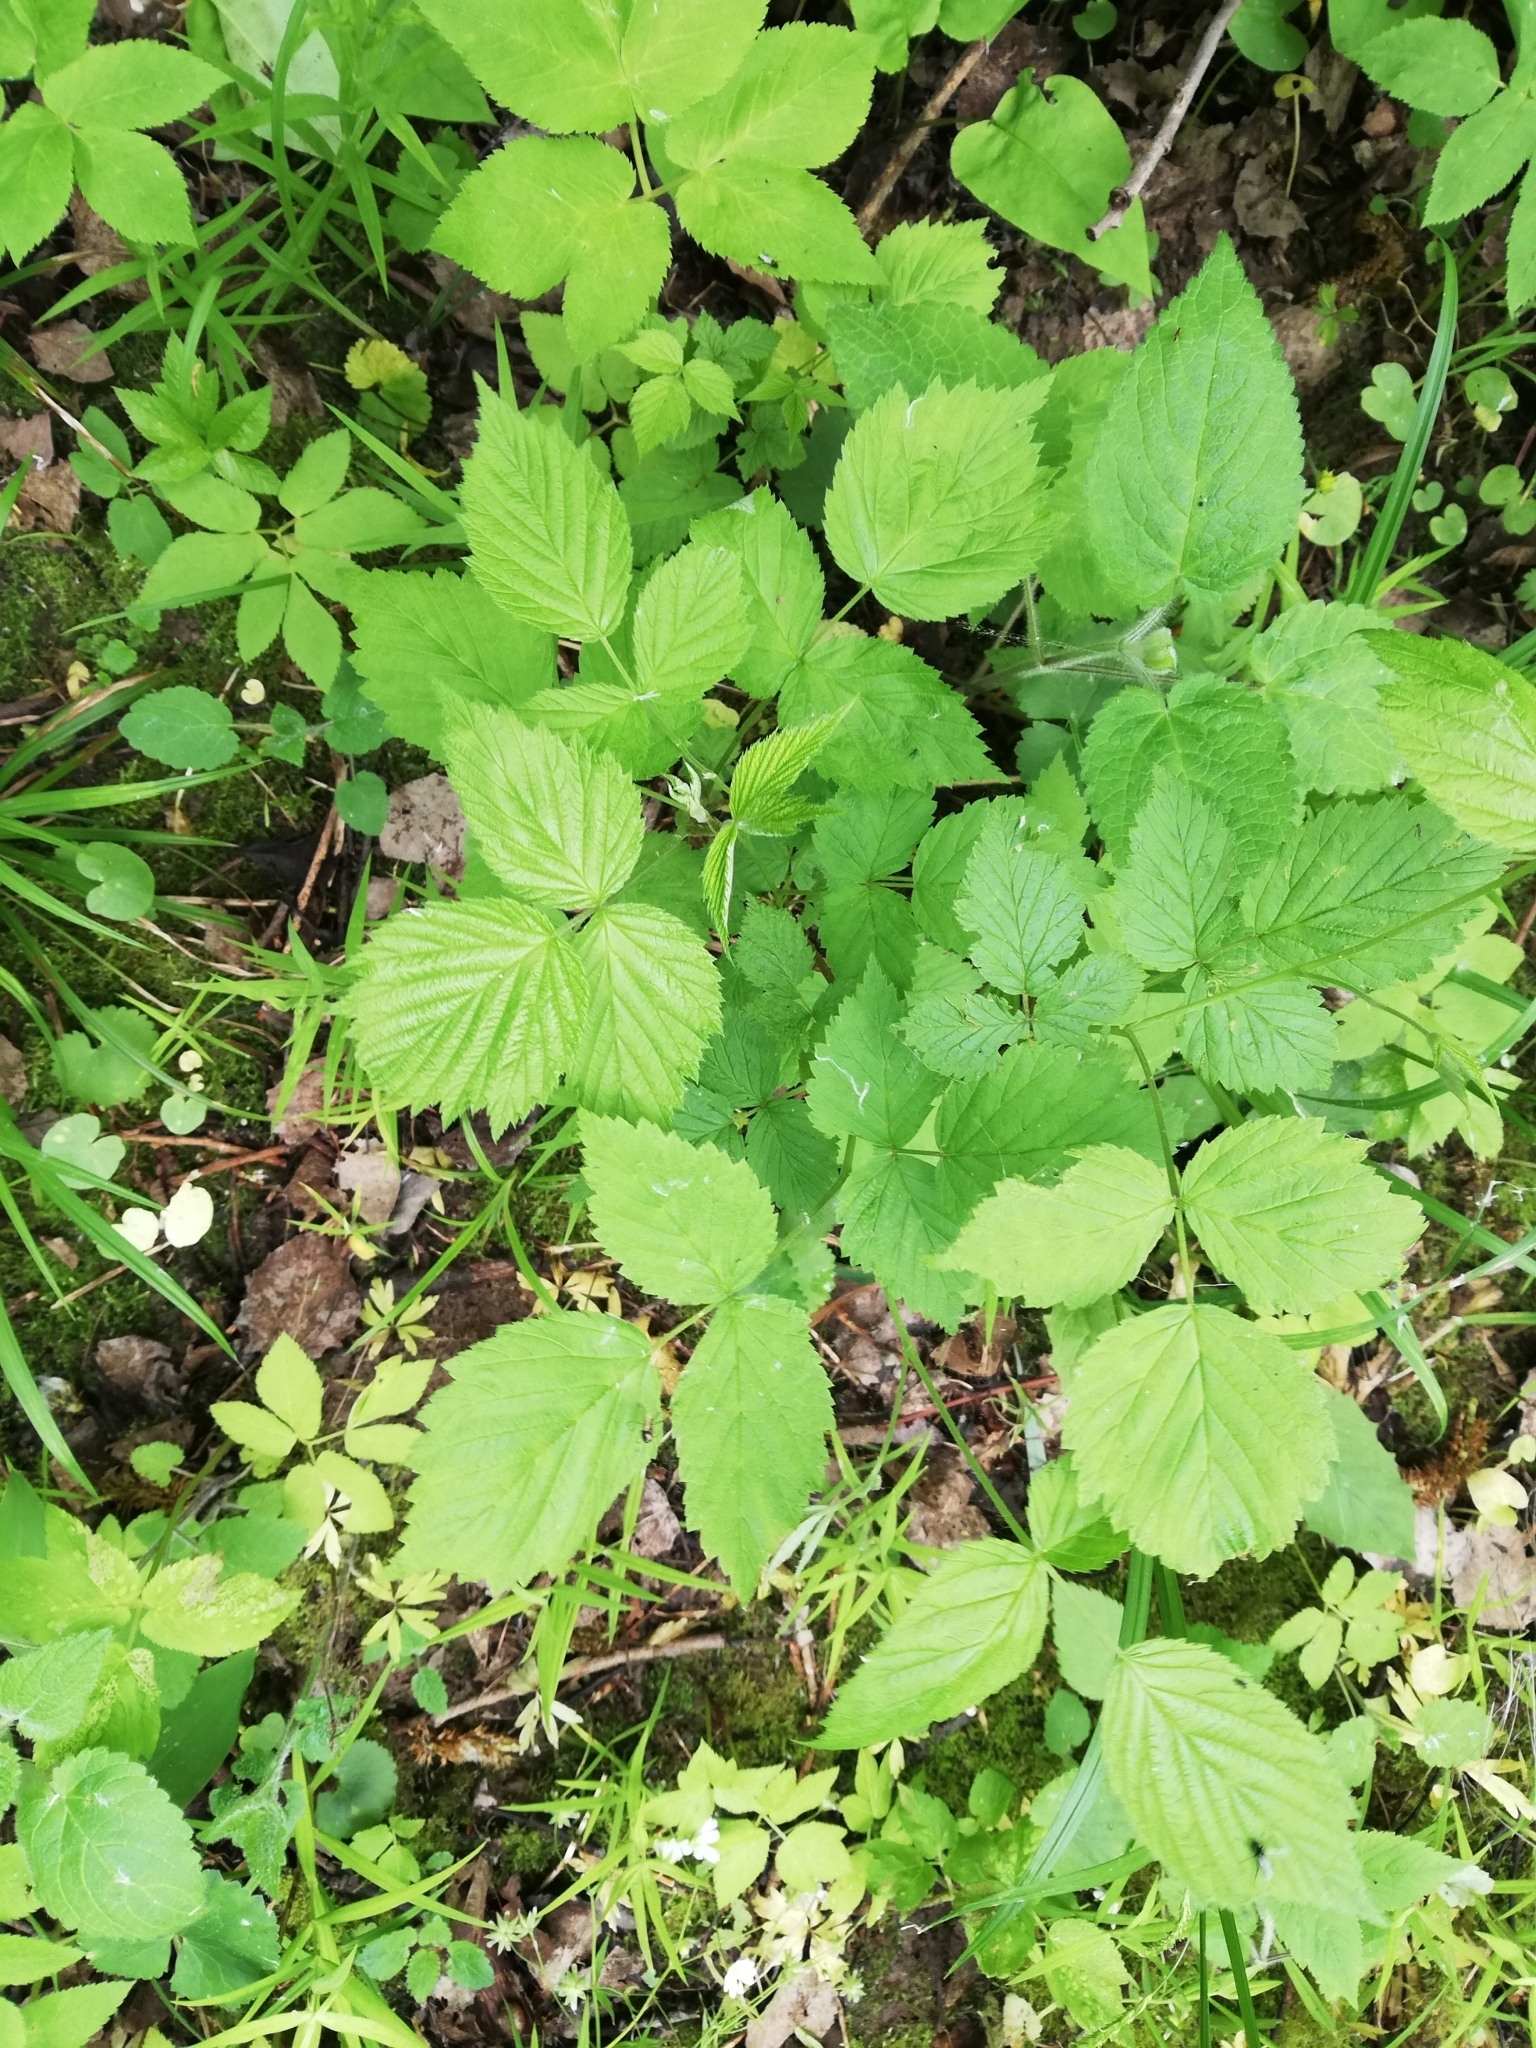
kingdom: Plantae
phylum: Tracheophyta
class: Magnoliopsida
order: Rosales
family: Rosaceae
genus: Rubus
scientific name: Rubus idaeus
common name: Raspberry
